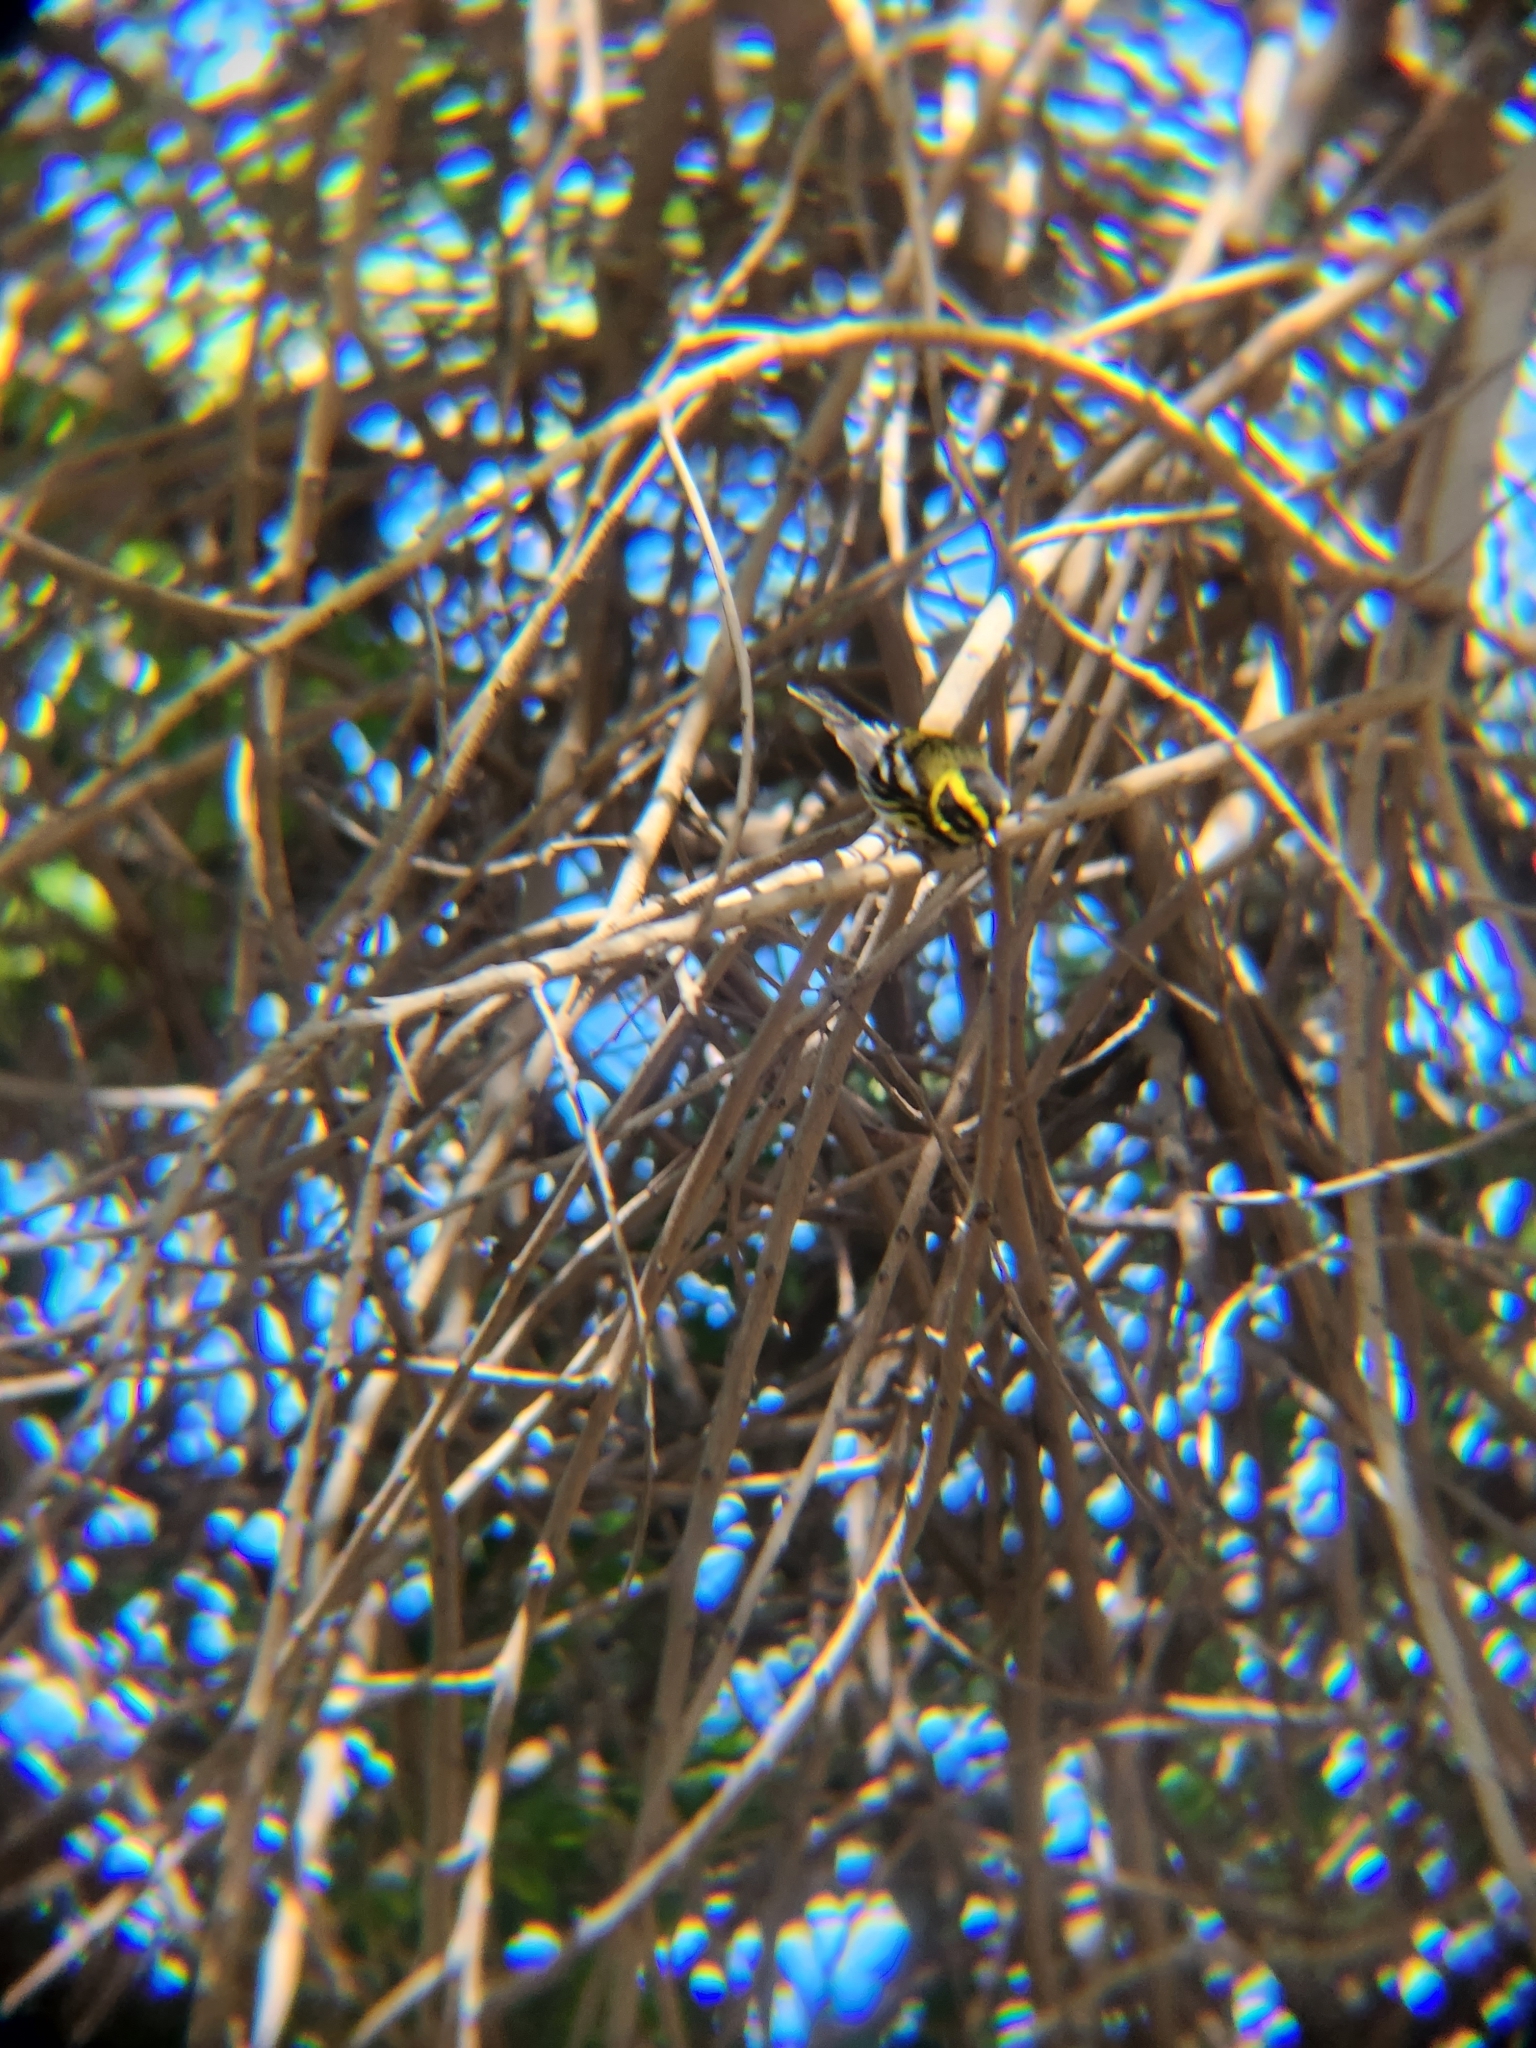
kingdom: Animalia
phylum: Chordata
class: Aves
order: Passeriformes
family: Parulidae
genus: Setophaga
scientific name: Setophaga townsendi
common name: Townsend's warbler
